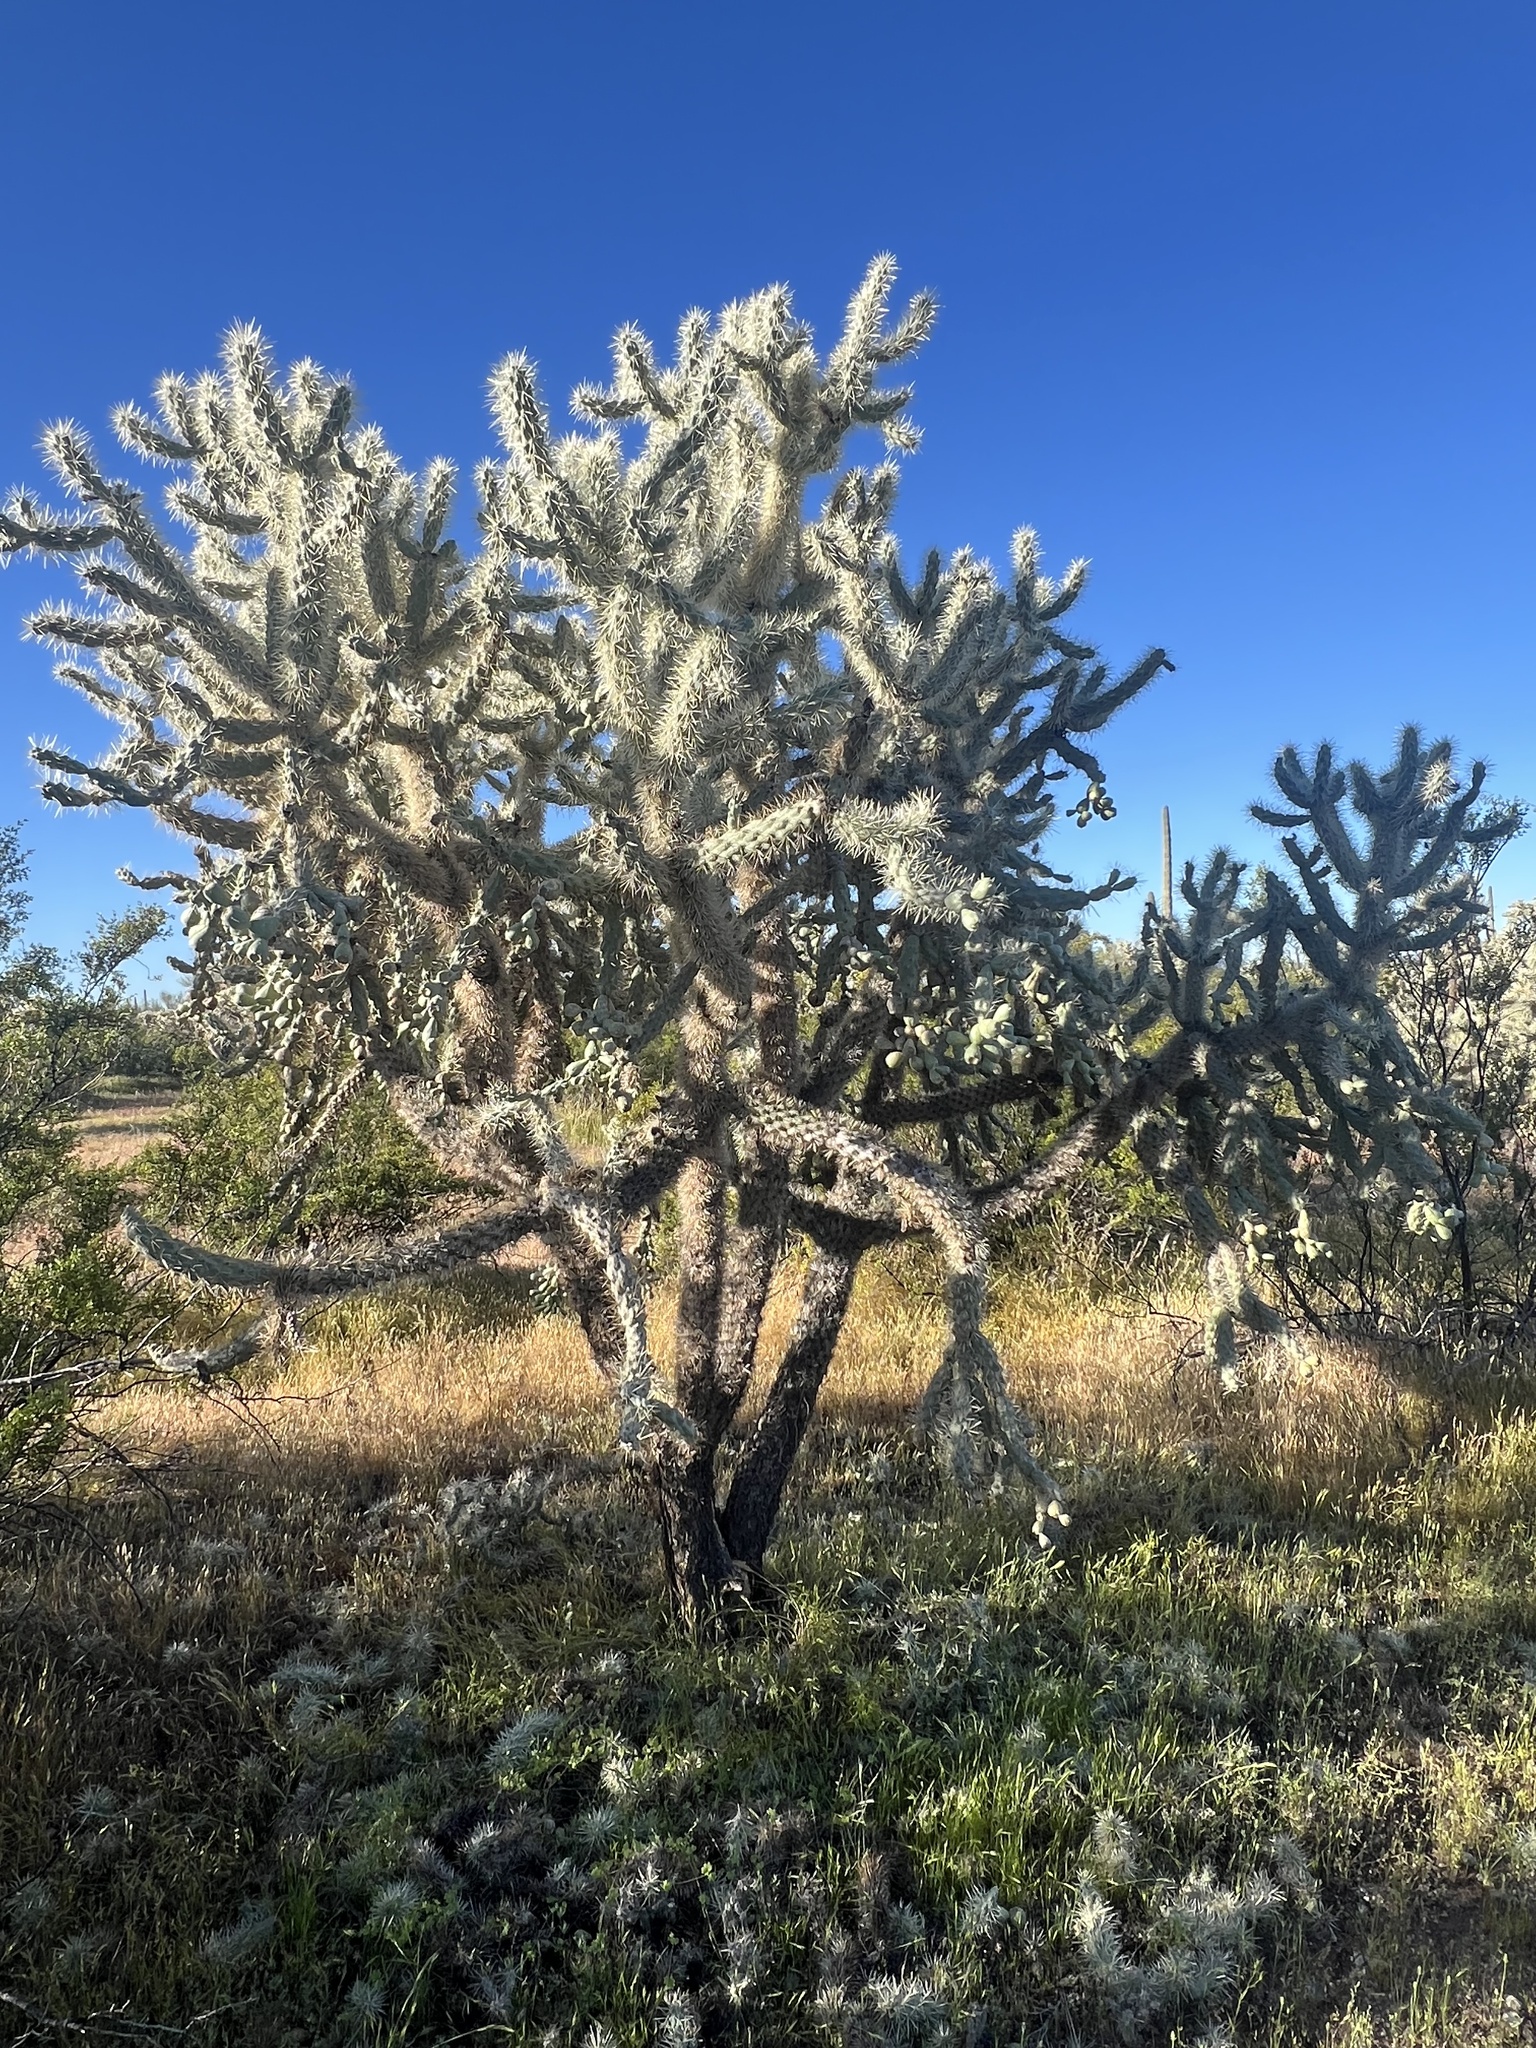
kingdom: Plantae
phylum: Tracheophyta
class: Magnoliopsida
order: Caryophyllales
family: Cactaceae
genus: Cylindropuntia
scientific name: Cylindropuntia fulgida
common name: Jumping cholla
